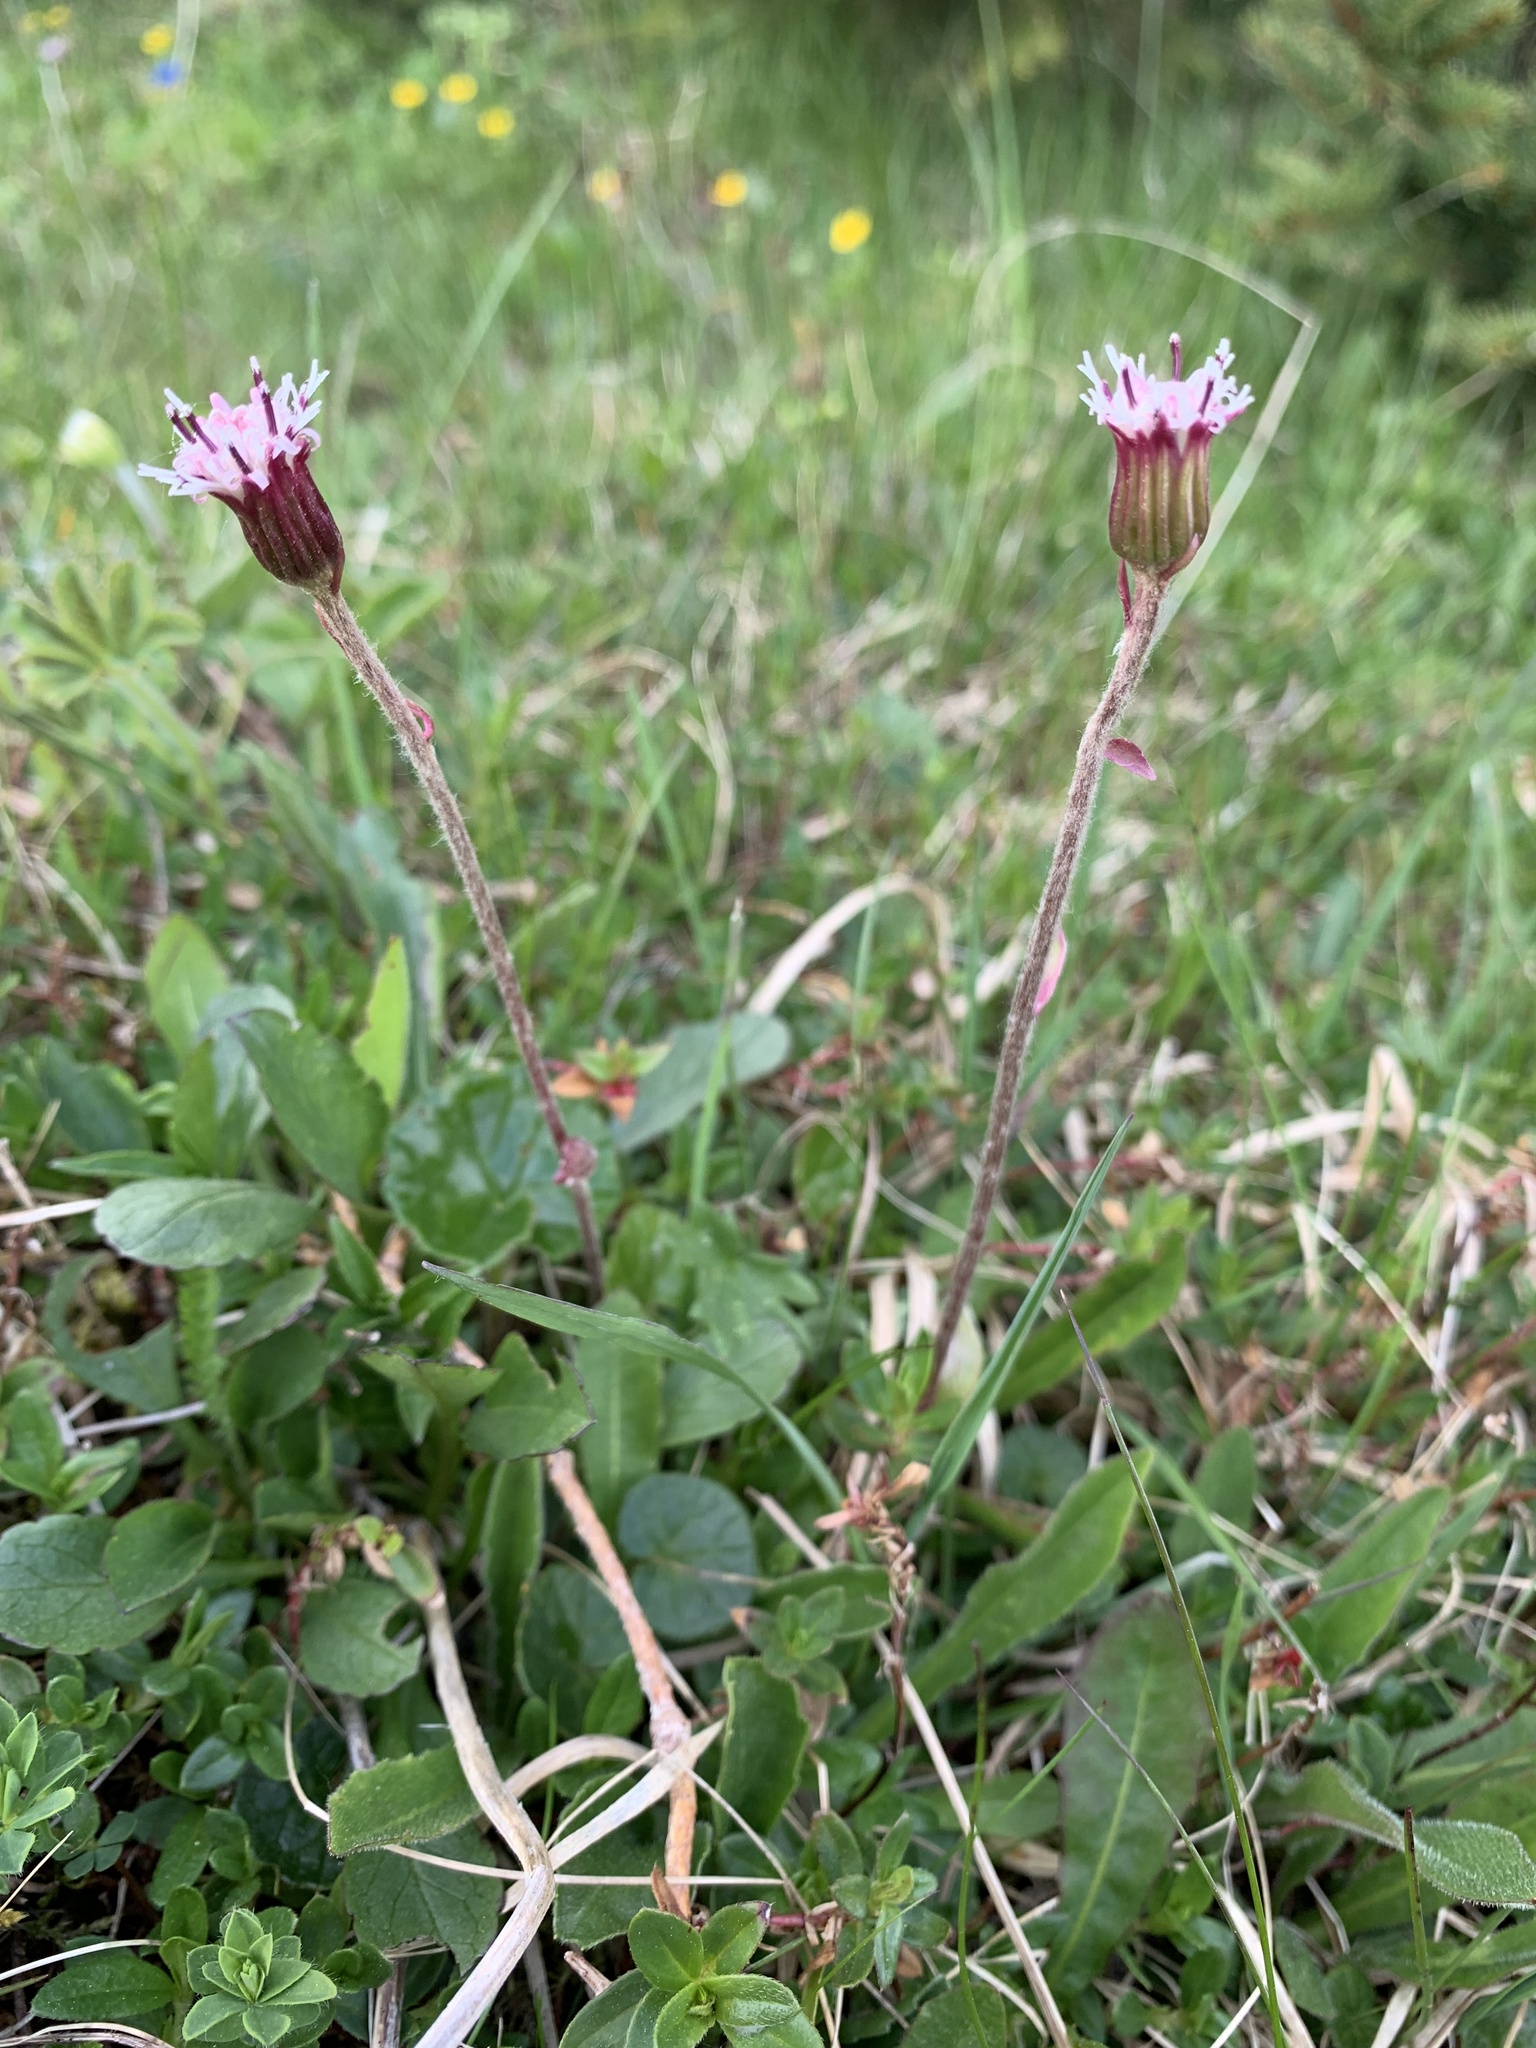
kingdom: Plantae
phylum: Tracheophyta
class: Magnoliopsida
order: Asterales
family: Asteraceae
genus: Homogyne
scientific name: Homogyne alpina
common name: Purple colt's-foot
